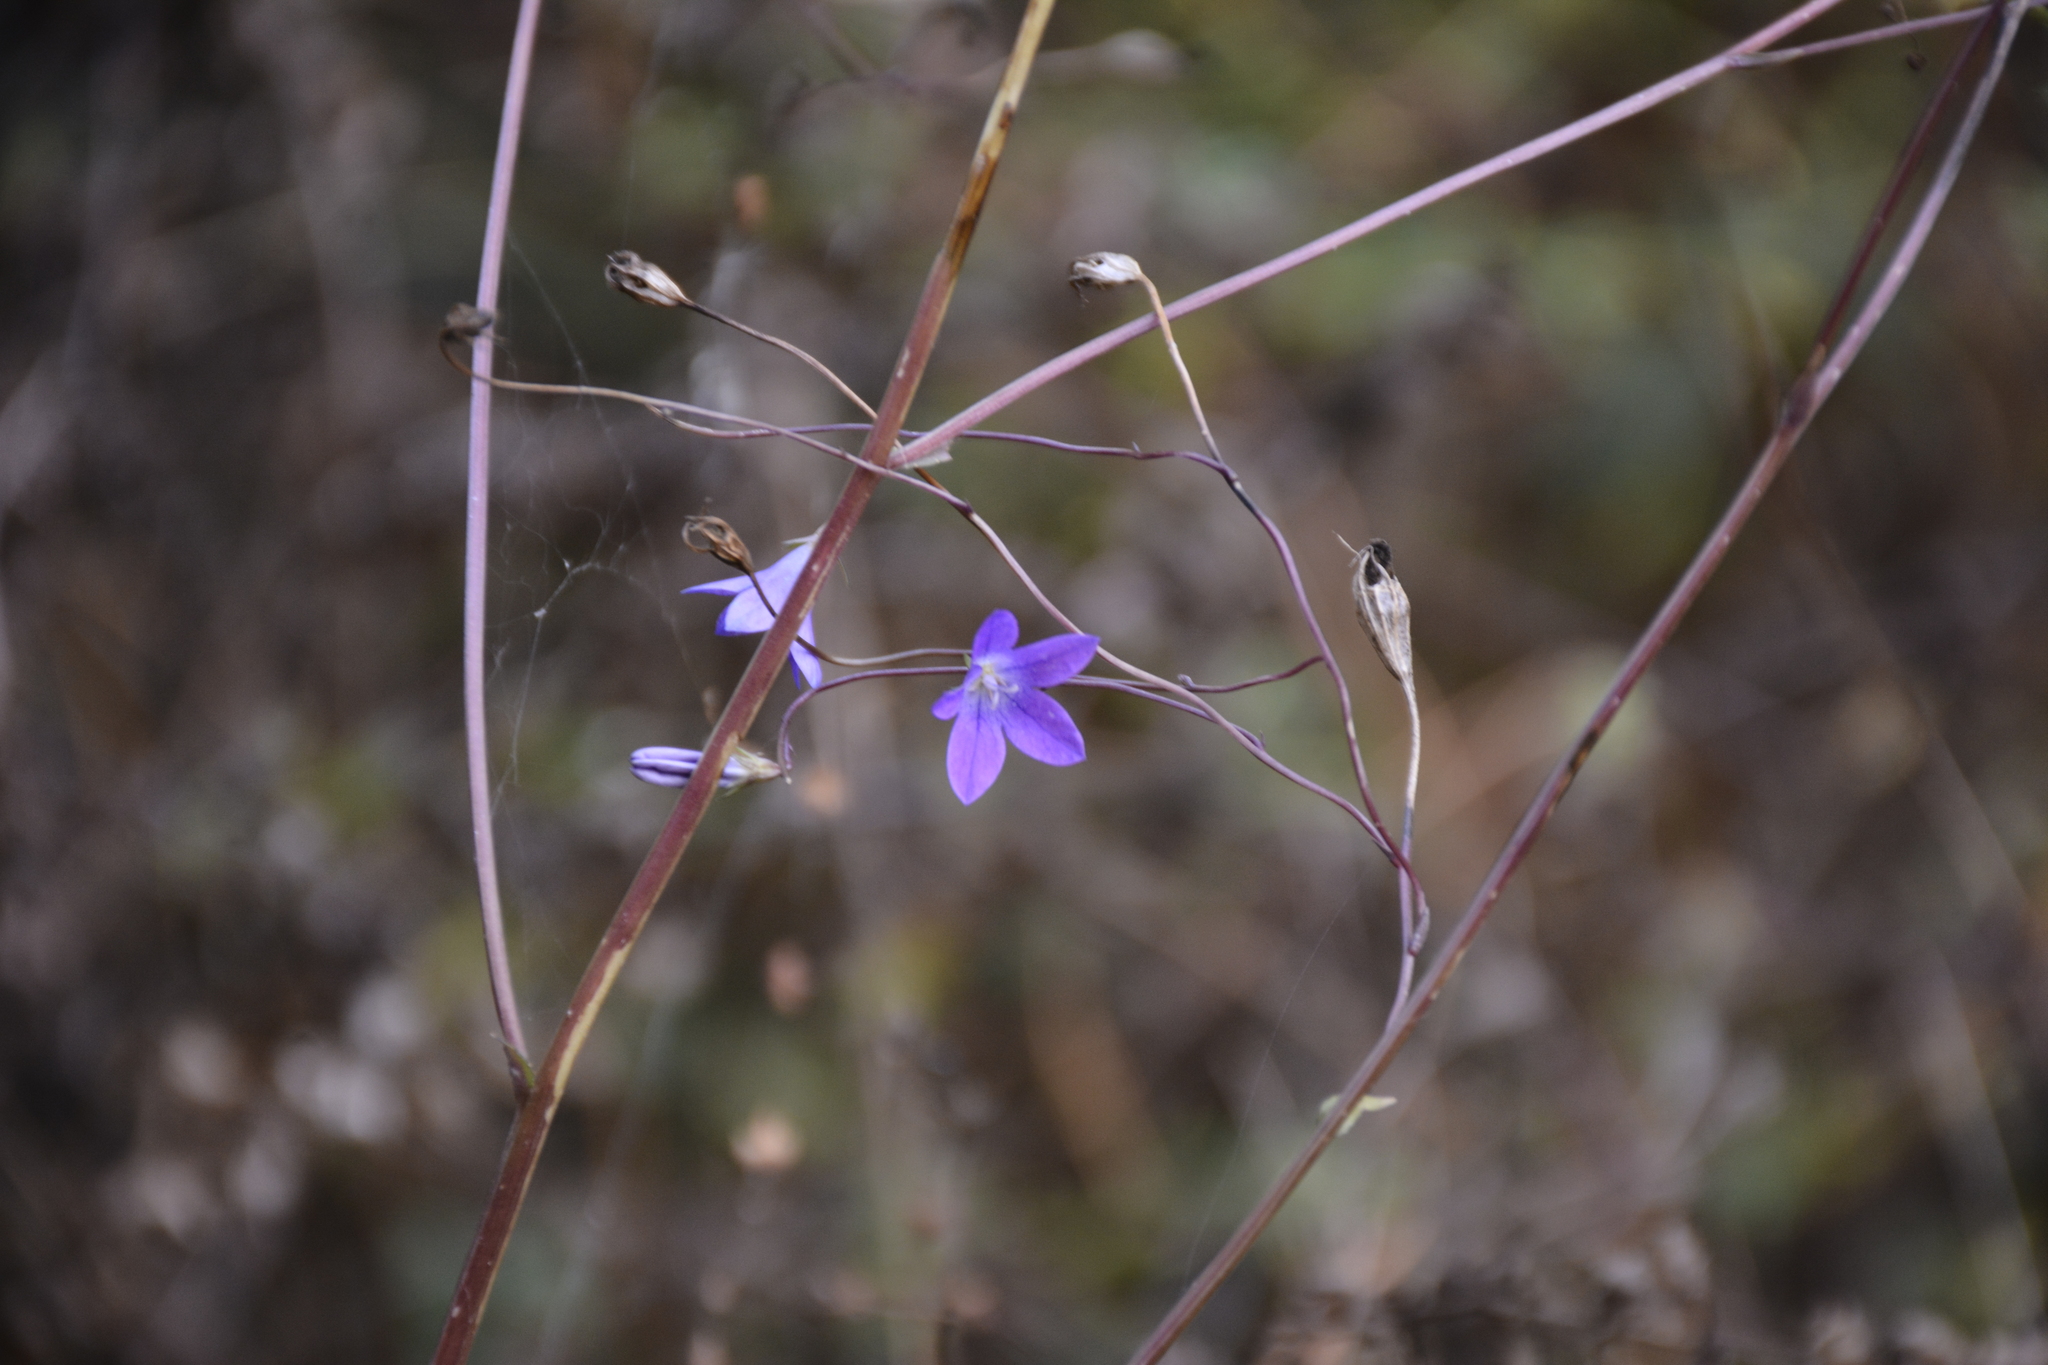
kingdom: Plantae
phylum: Tracheophyta
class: Magnoliopsida
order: Asterales
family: Campanulaceae
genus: Campanula
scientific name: Campanula patula
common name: Spreading bellflower
